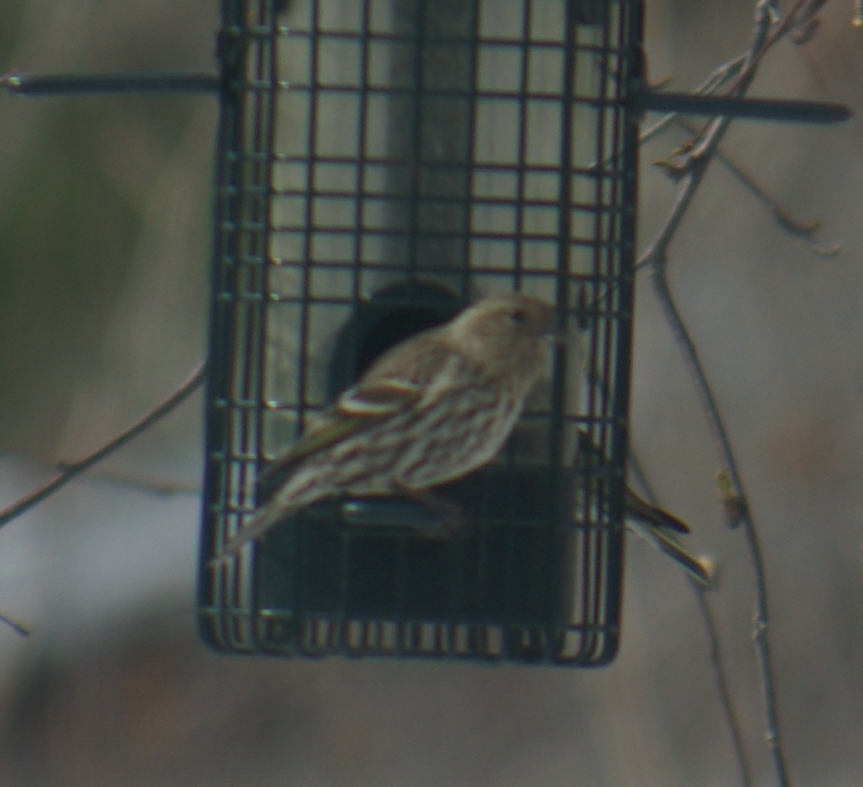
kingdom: Animalia
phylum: Chordata
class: Aves
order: Passeriformes
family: Fringillidae
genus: Spinus
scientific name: Spinus pinus
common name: Pine siskin
